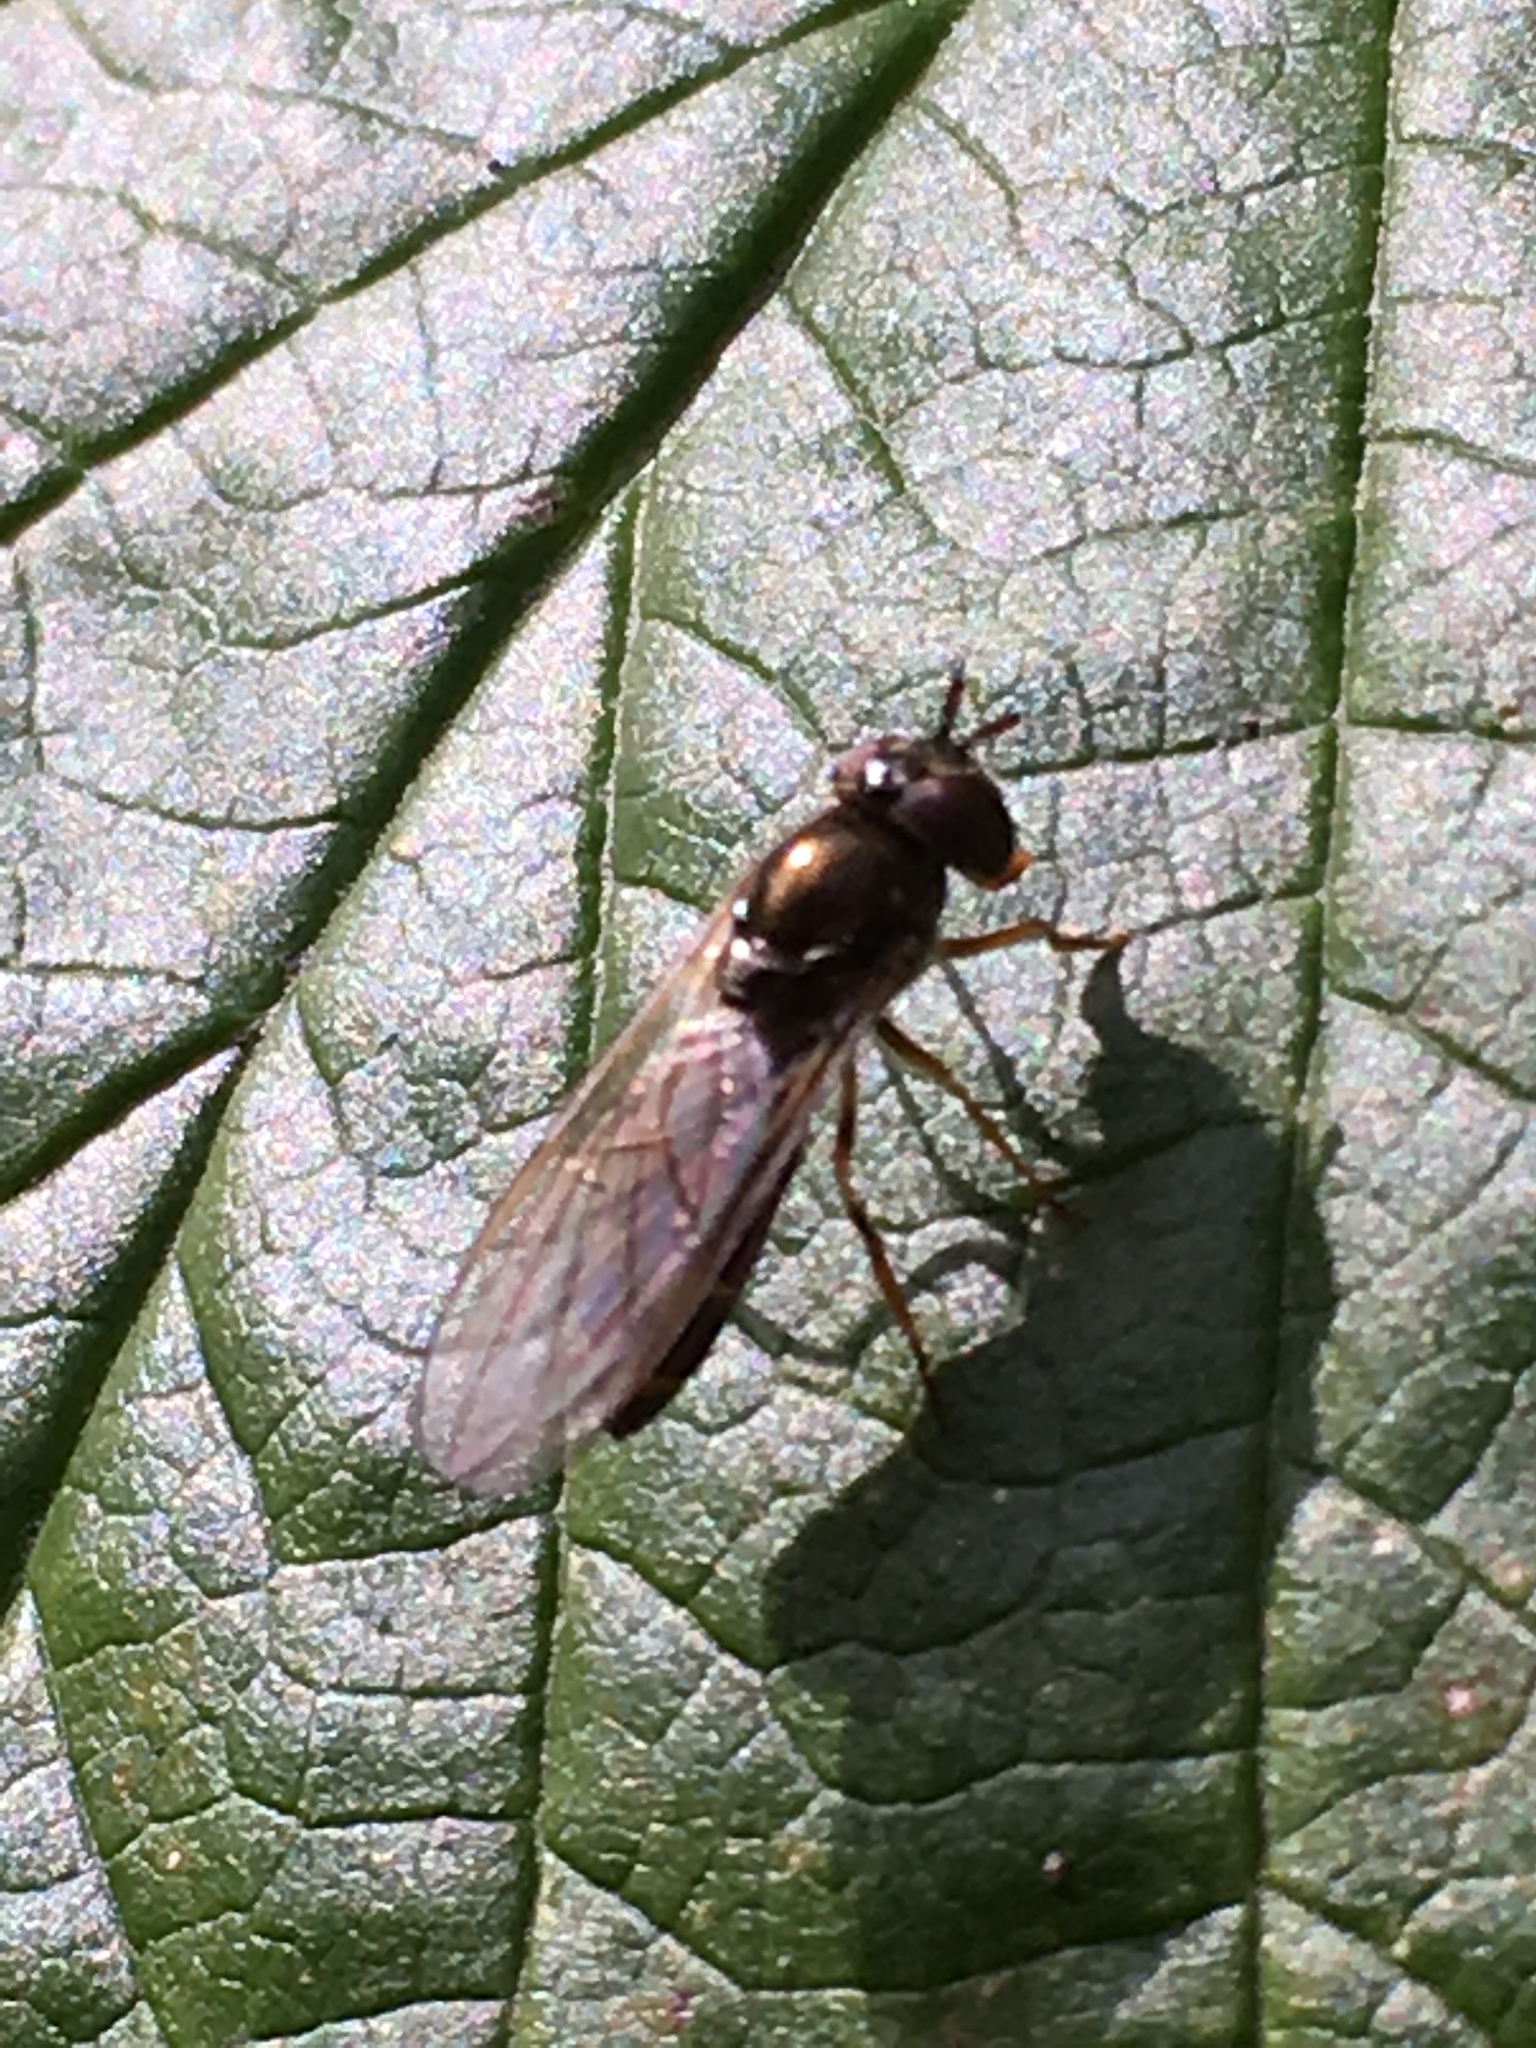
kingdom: Animalia
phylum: Arthropoda
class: Insecta
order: Diptera
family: Syrphidae
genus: Melanostoma
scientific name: Melanostoma scalare
